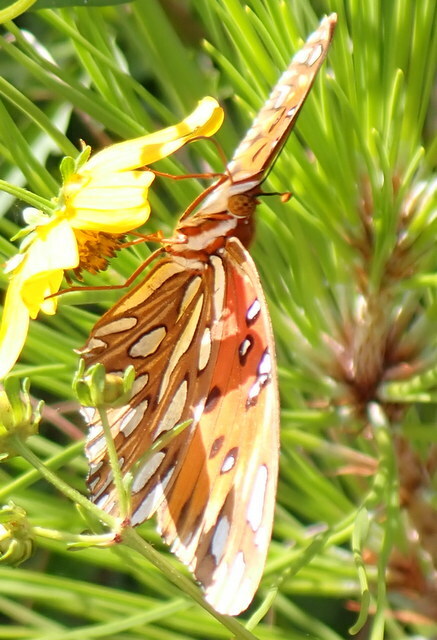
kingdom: Animalia
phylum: Arthropoda
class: Insecta
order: Lepidoptera
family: Nymphalidae
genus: Dione
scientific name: Dione vanillae
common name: Gulf fritillary
